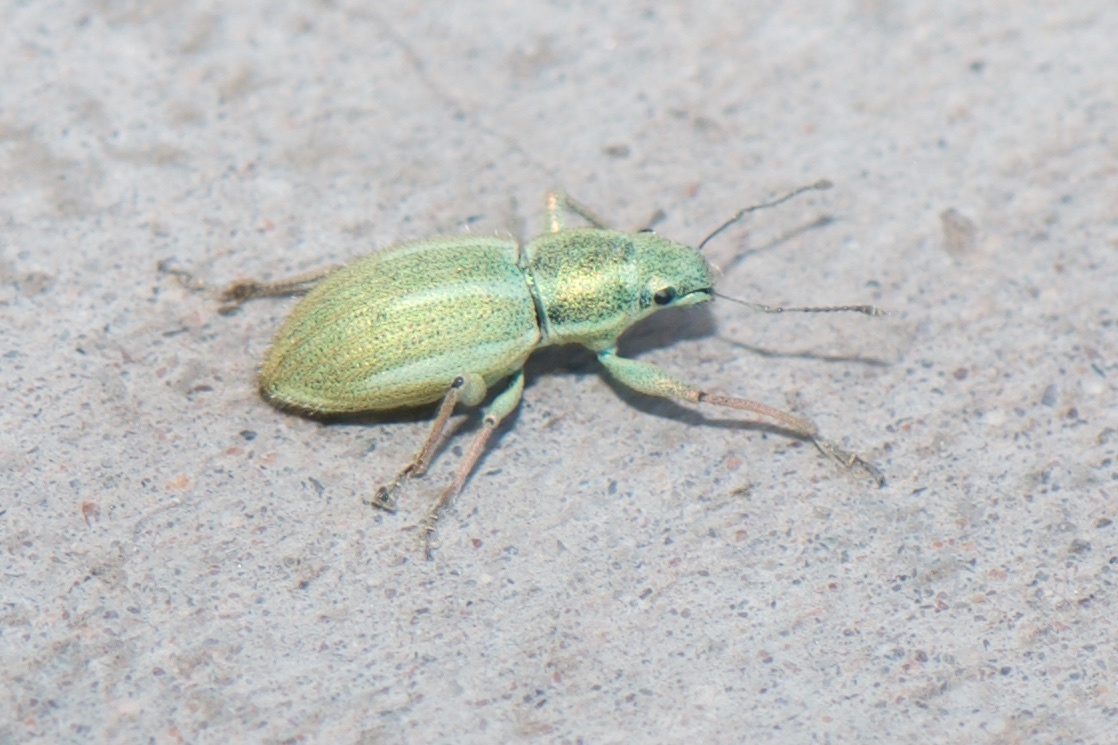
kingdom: Animalia
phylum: Arthropoda
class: Insecta
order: Coleoptera
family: Curculionidae
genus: Naupactus
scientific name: Naupactus auripes
